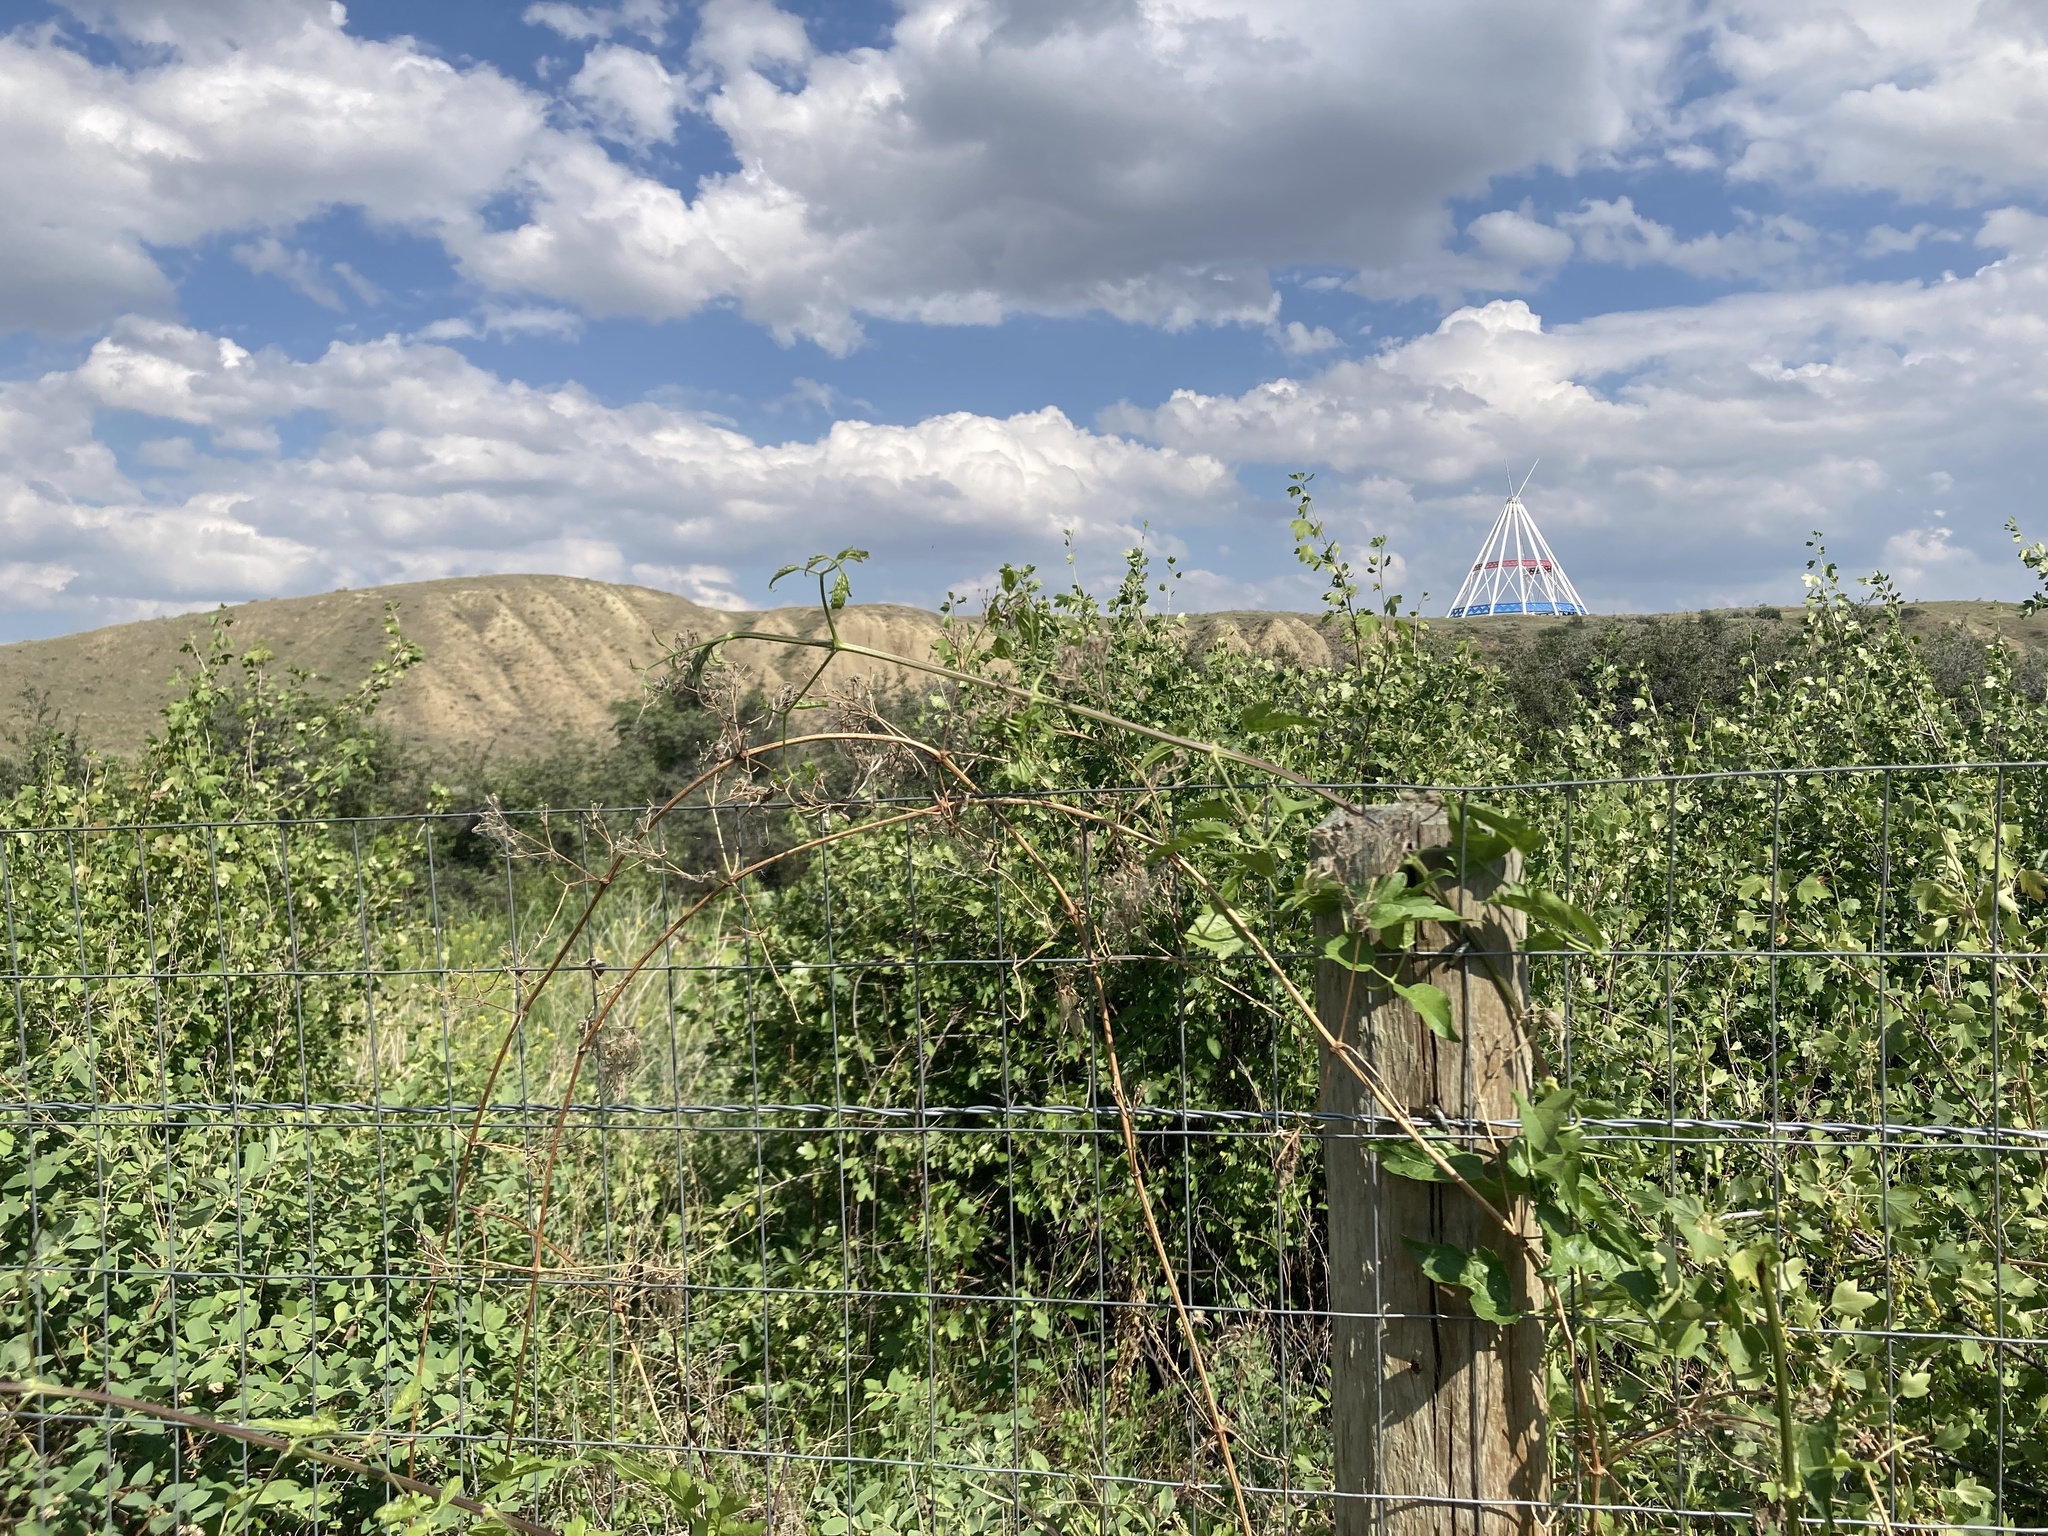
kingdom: Plantae
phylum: Tracheophyta
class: Magnoliopsida
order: Ranunculales
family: Ranunculaceae
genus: Clematis
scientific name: Clematis ligusticifolia
